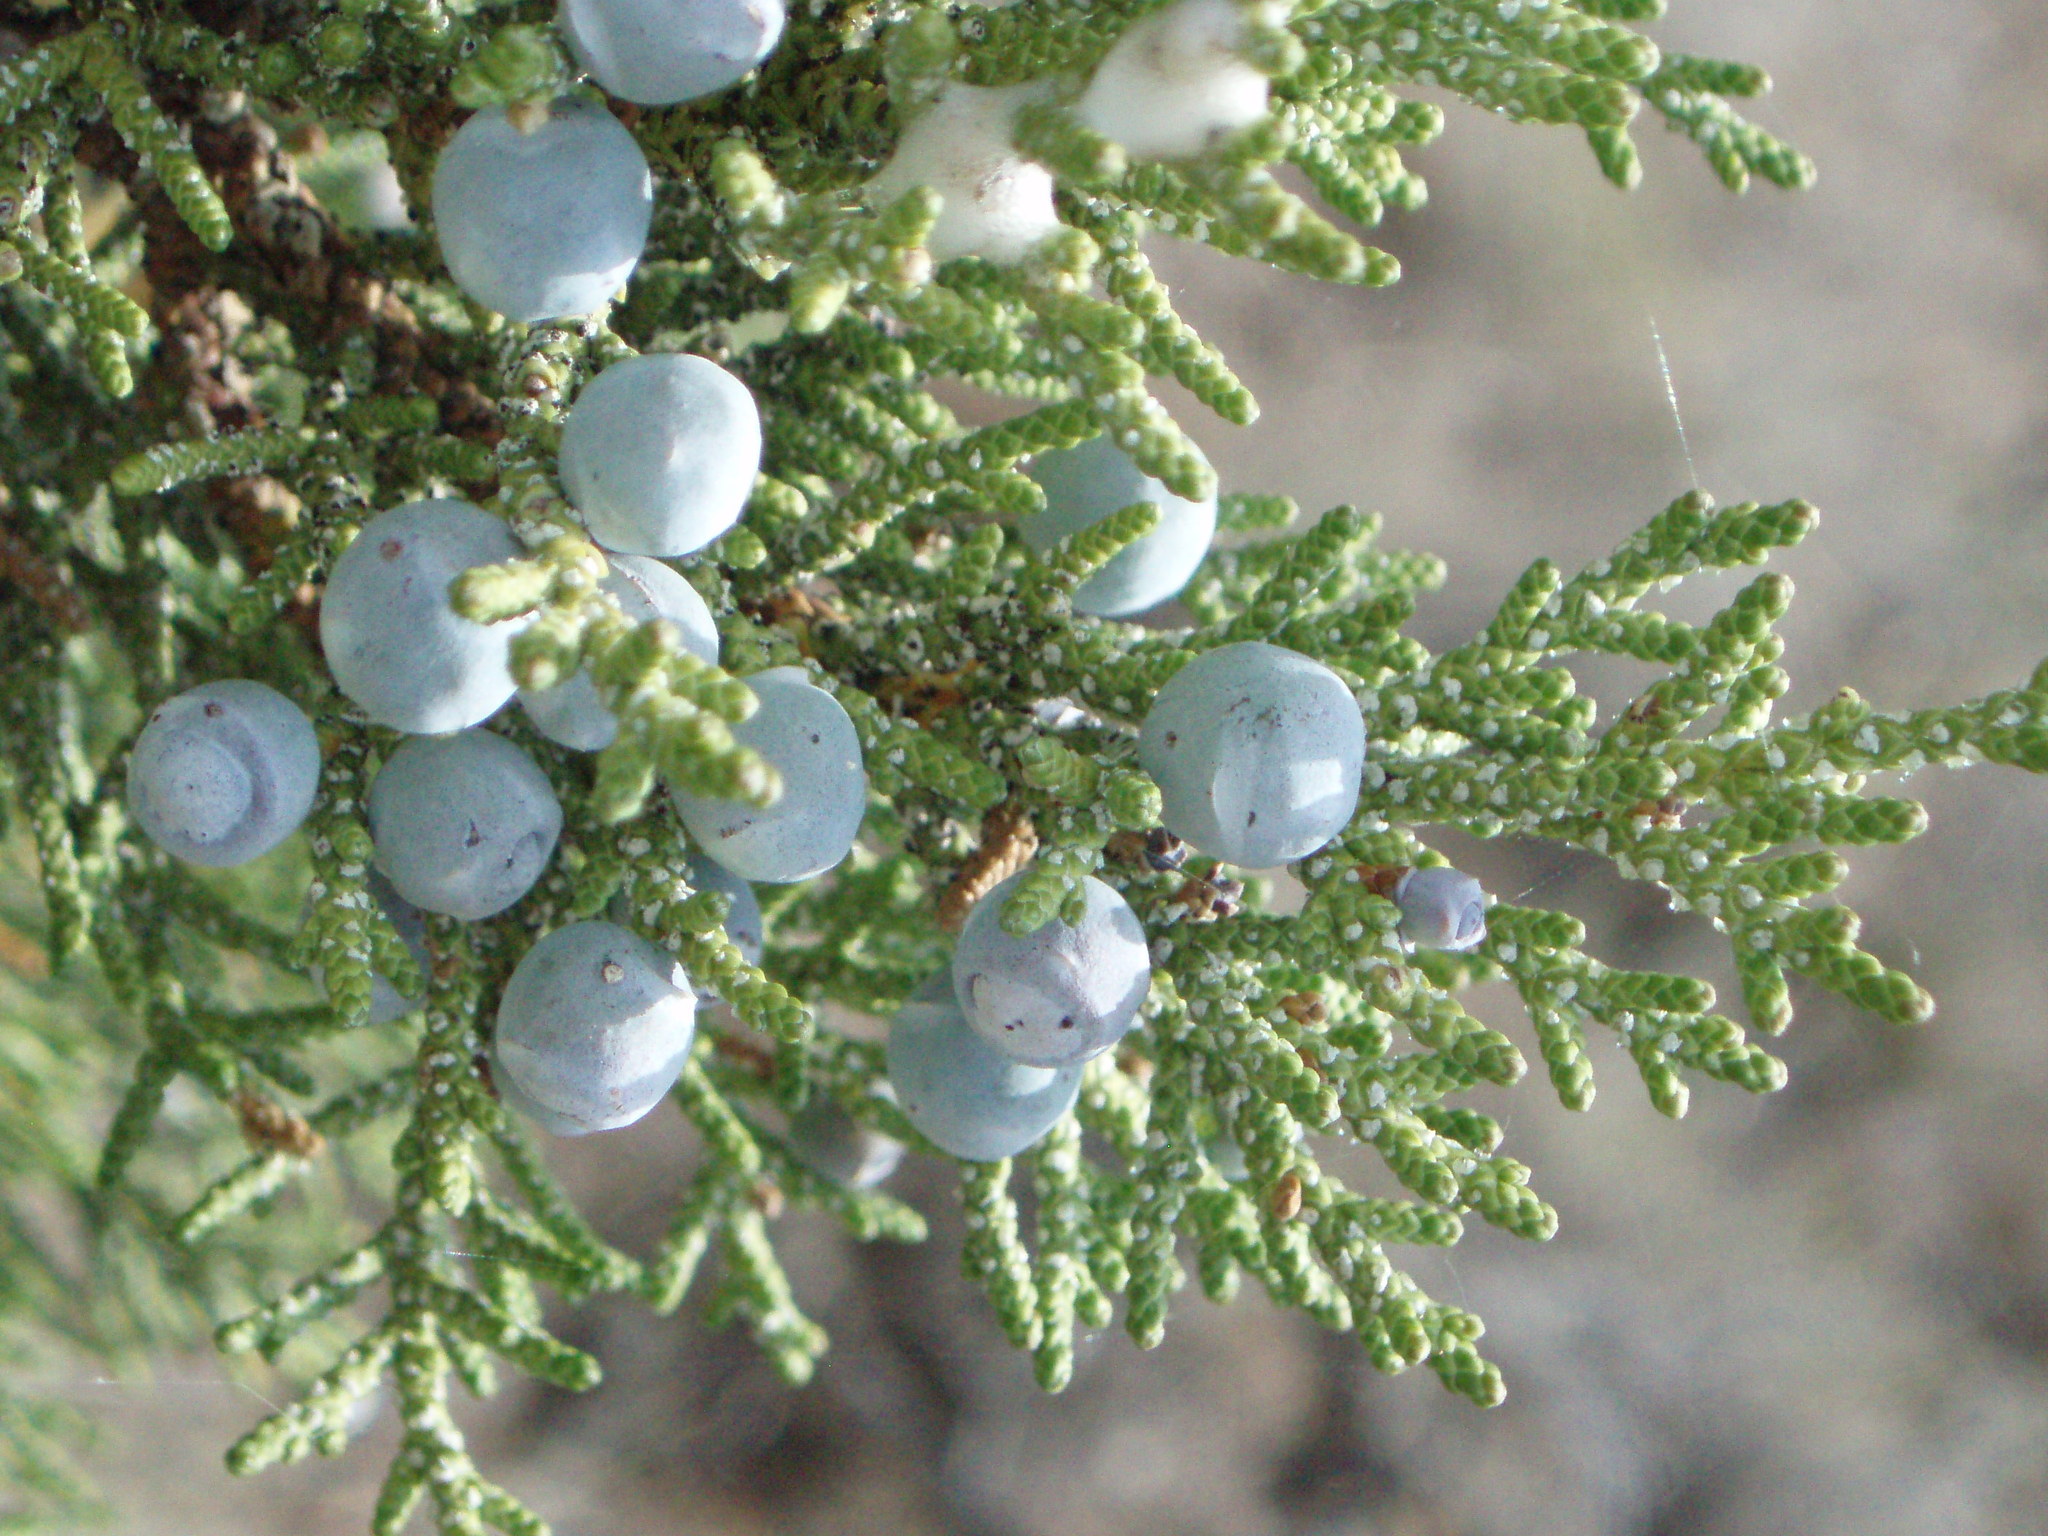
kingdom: Plantae
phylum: Tracheophyta
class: Pinopsida
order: Pinales
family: Cupressaceae
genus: Juniperus
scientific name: Juniperus occidentalis
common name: Western juniper
